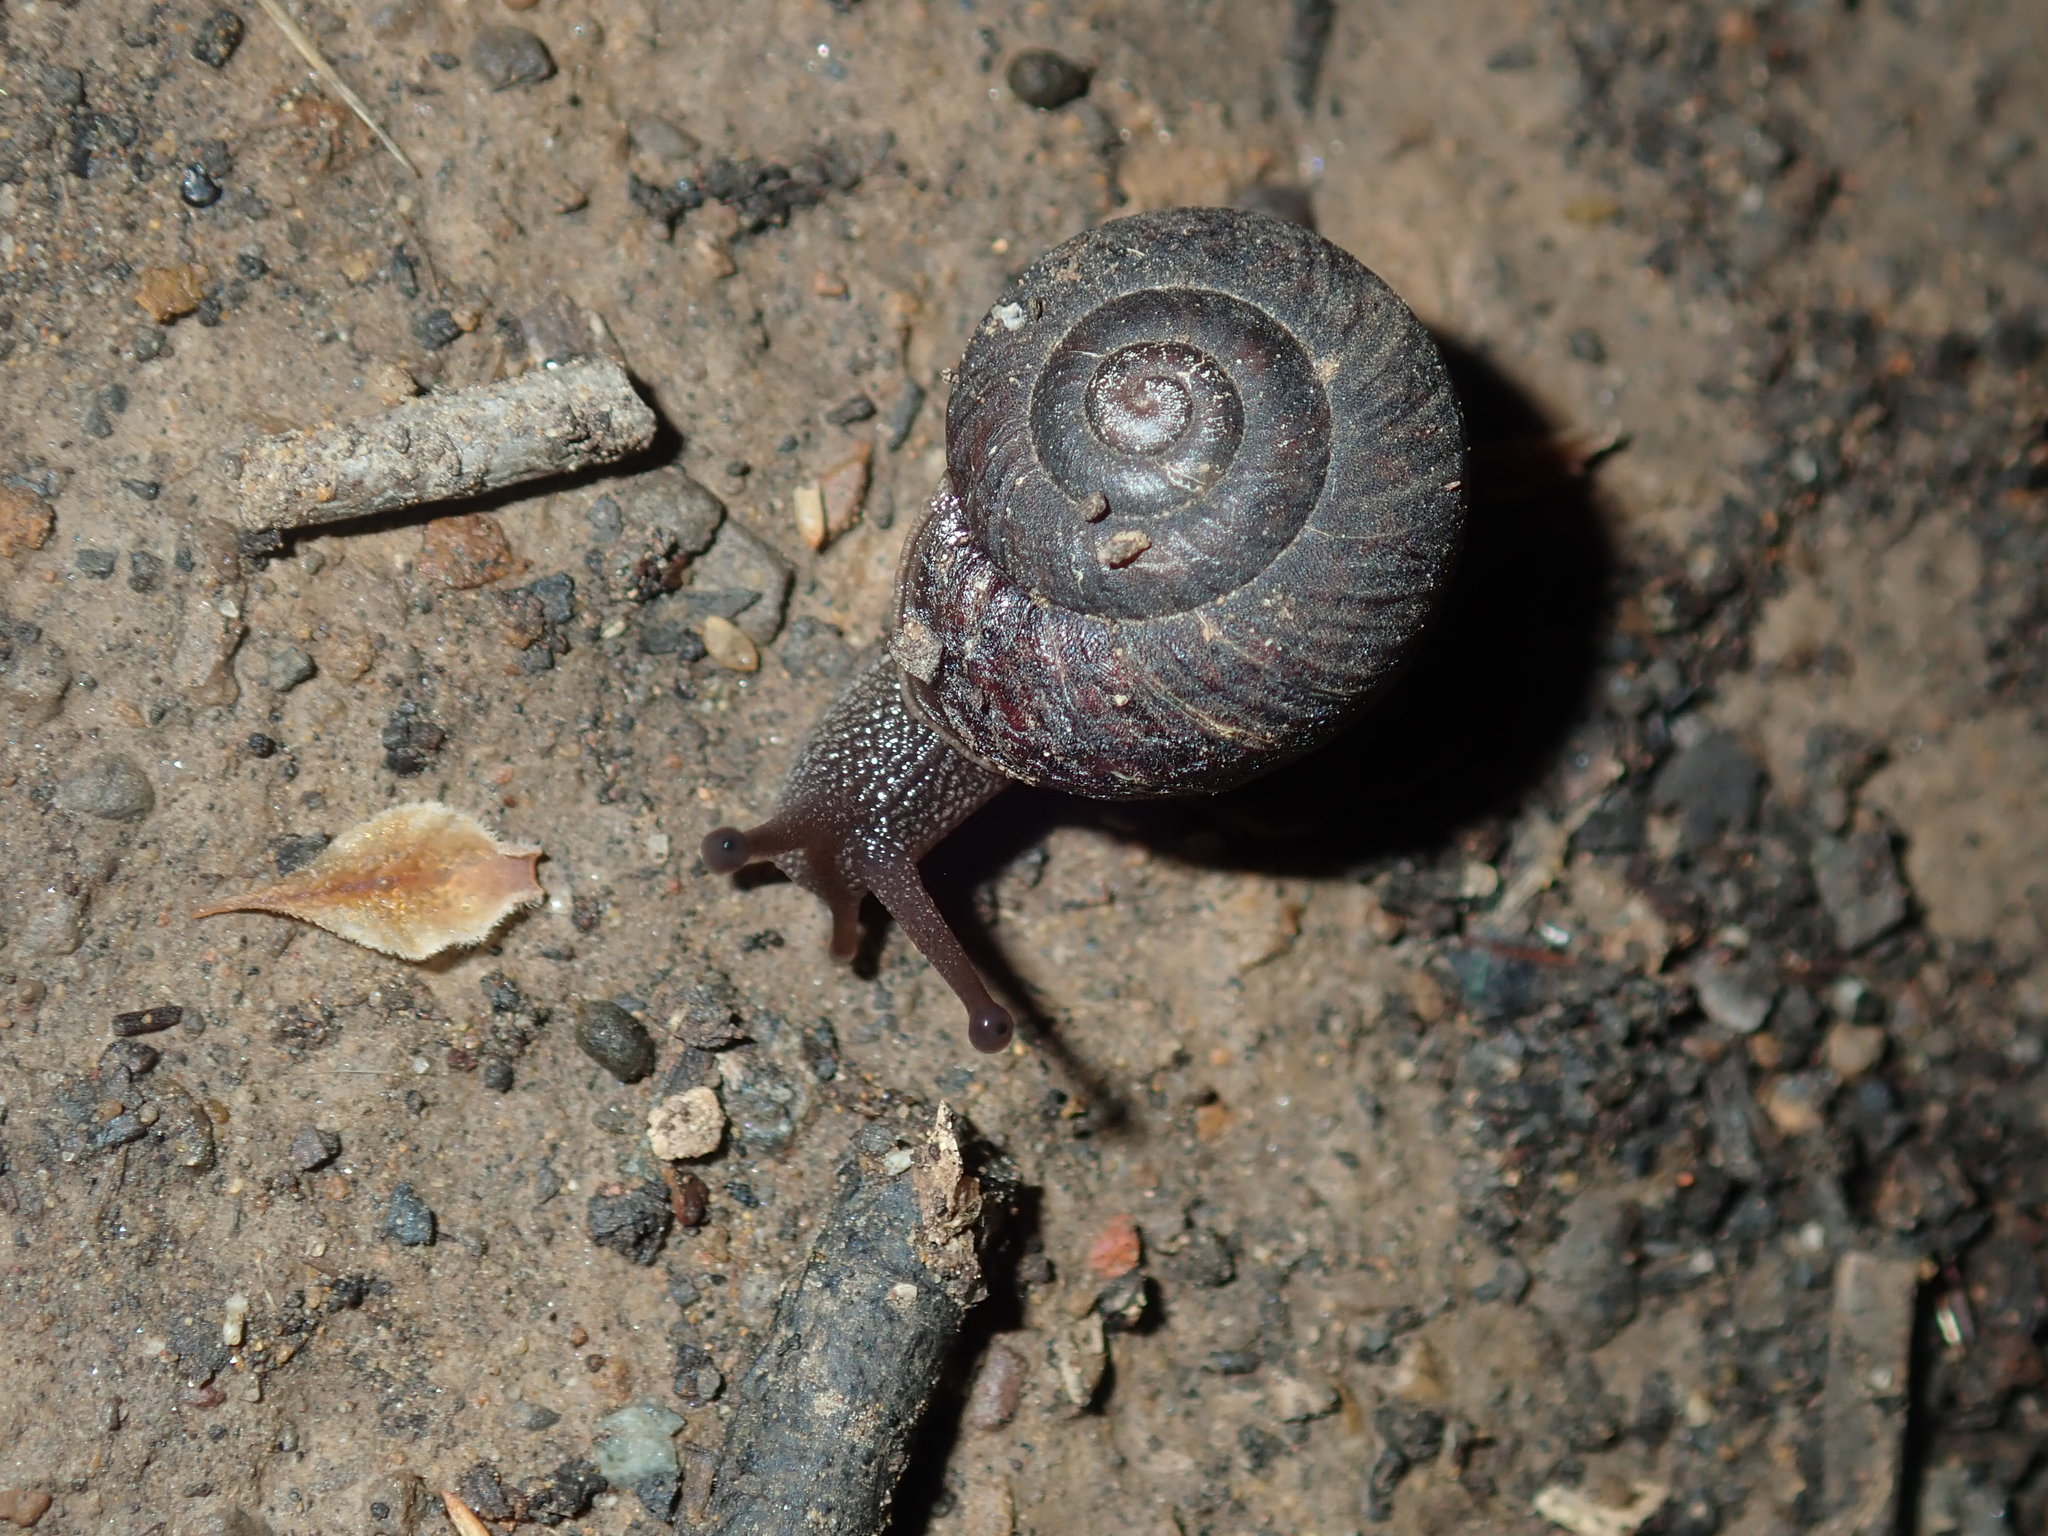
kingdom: Animalia
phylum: Mollusca
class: Gastropoda
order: Stylommatophora
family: Camaenidae
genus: Sauroconcha
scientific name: Sauroconcha sheai
